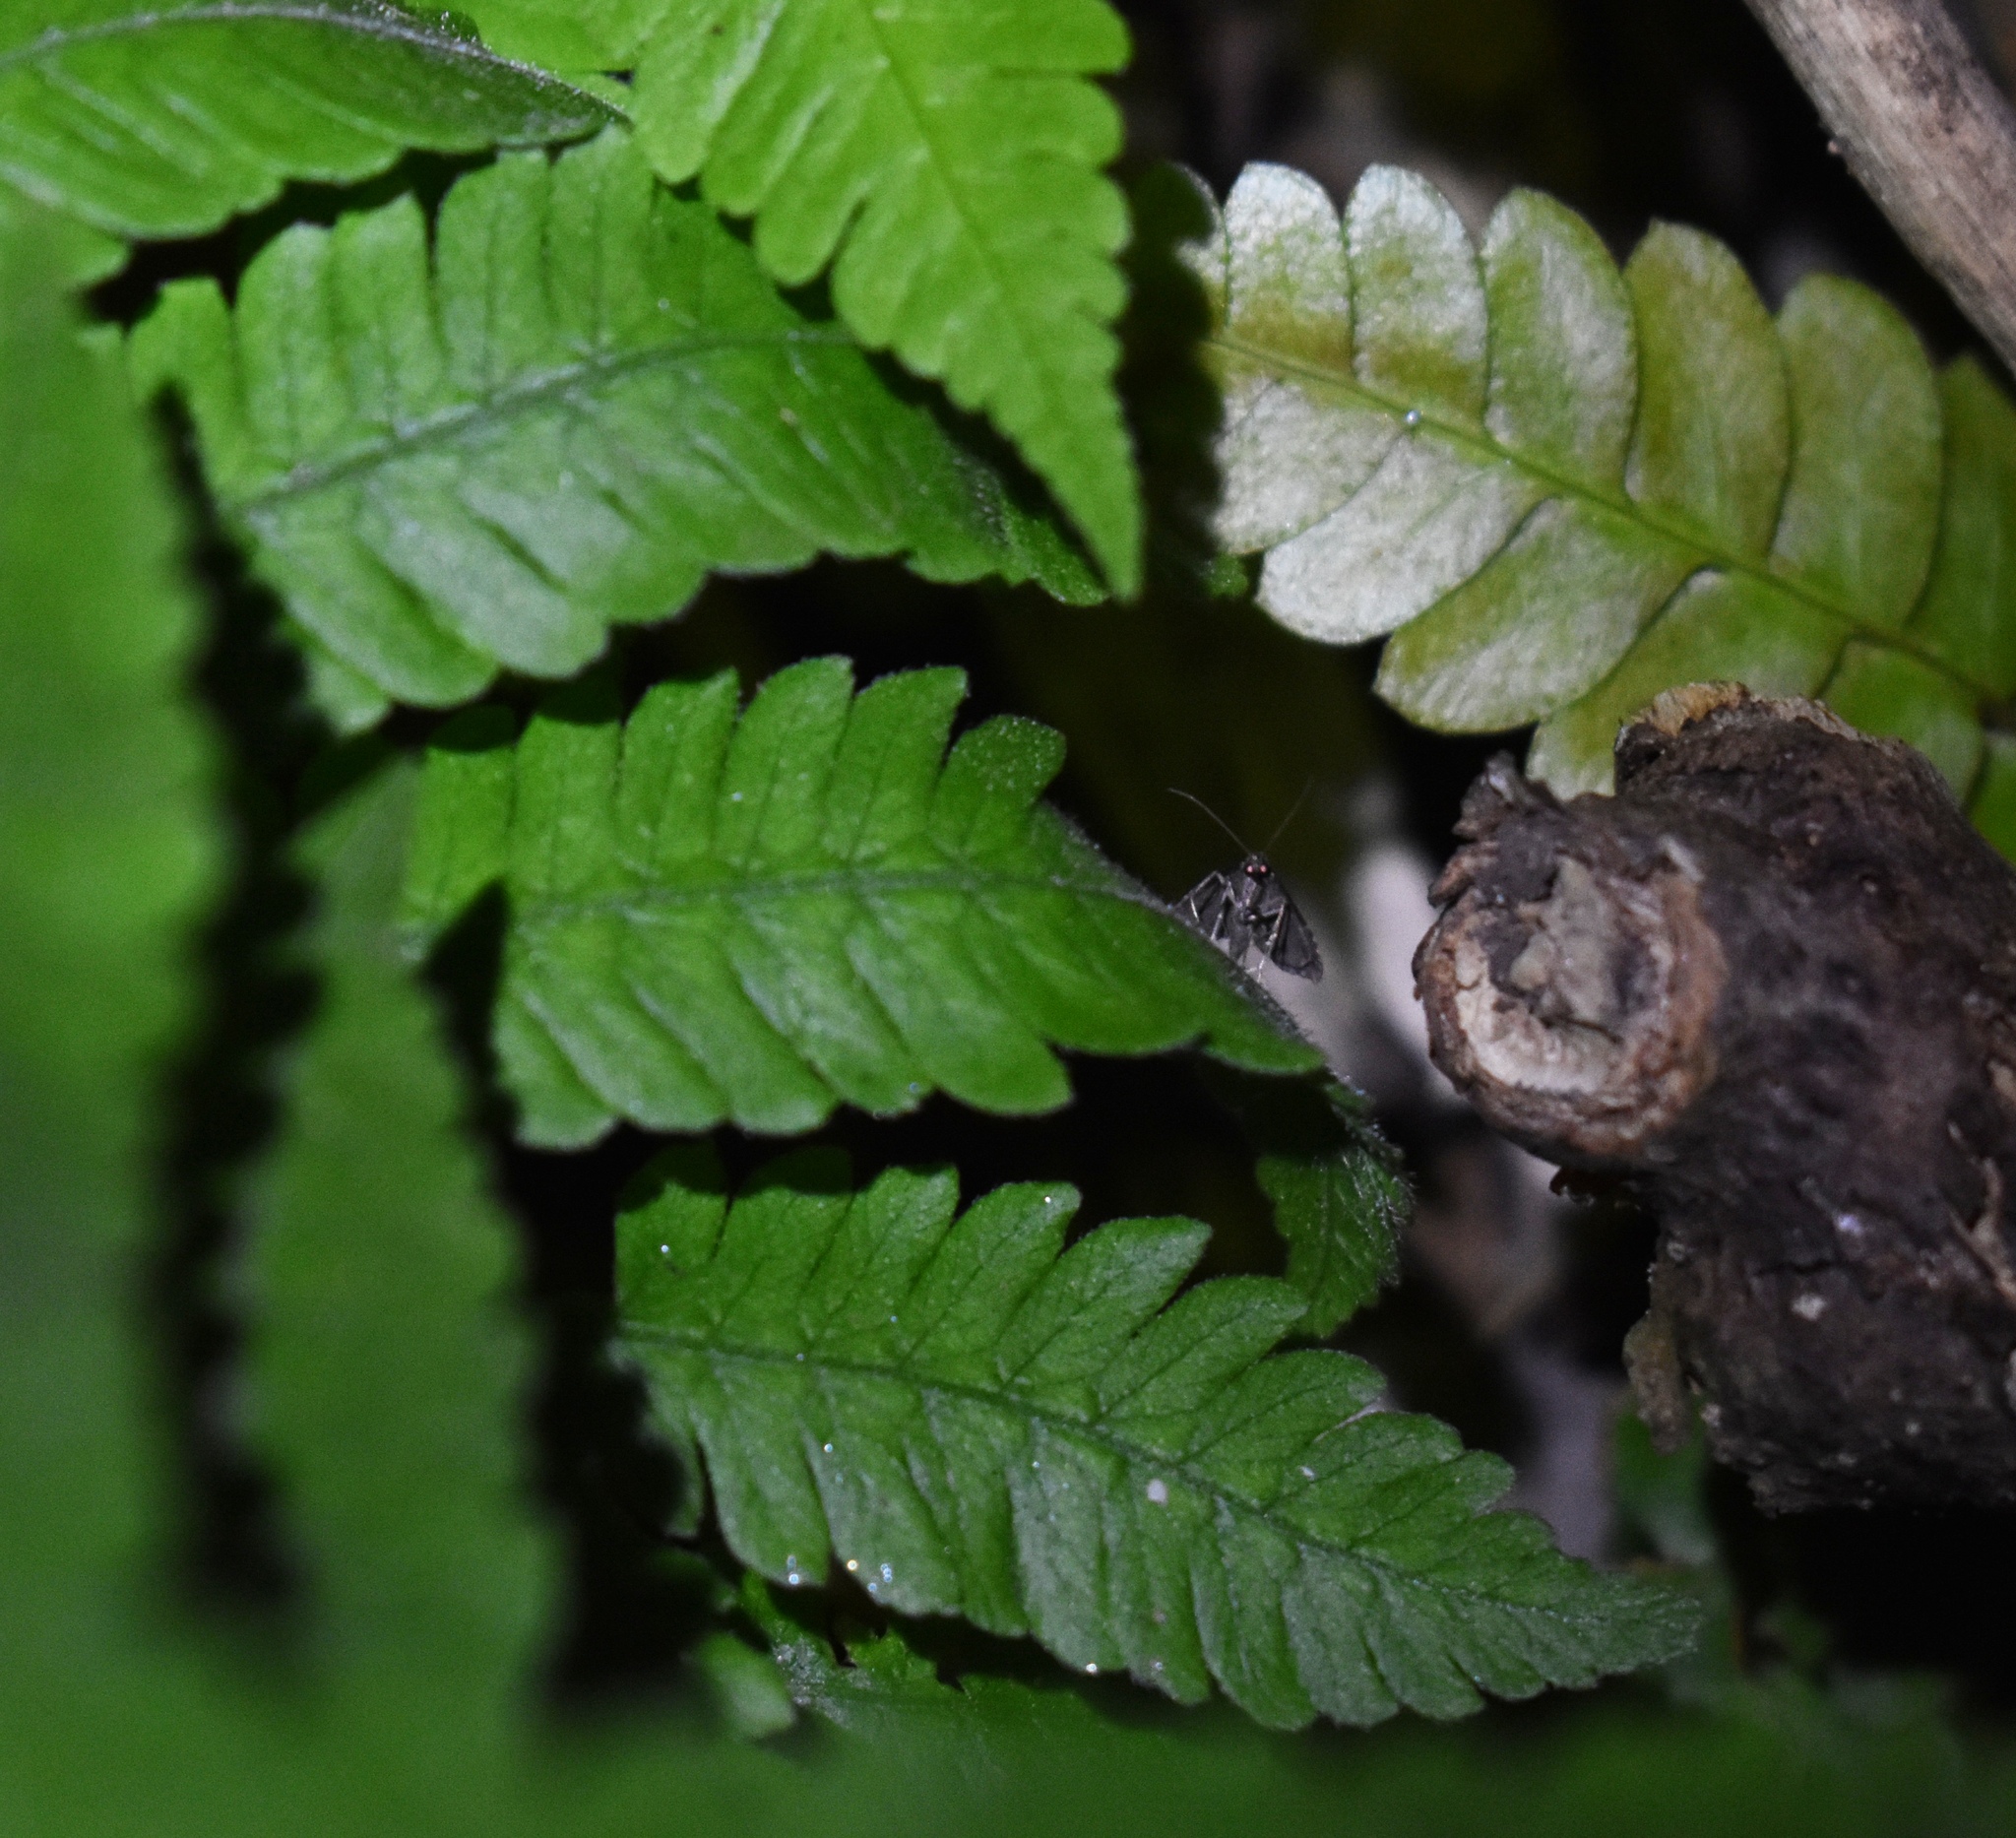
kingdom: Animalia
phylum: Arthropoda
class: Insecta
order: Lepidoptera
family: Erebidae
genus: Pseudoschrankia
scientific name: Pseudoschrankia brevipalpis
